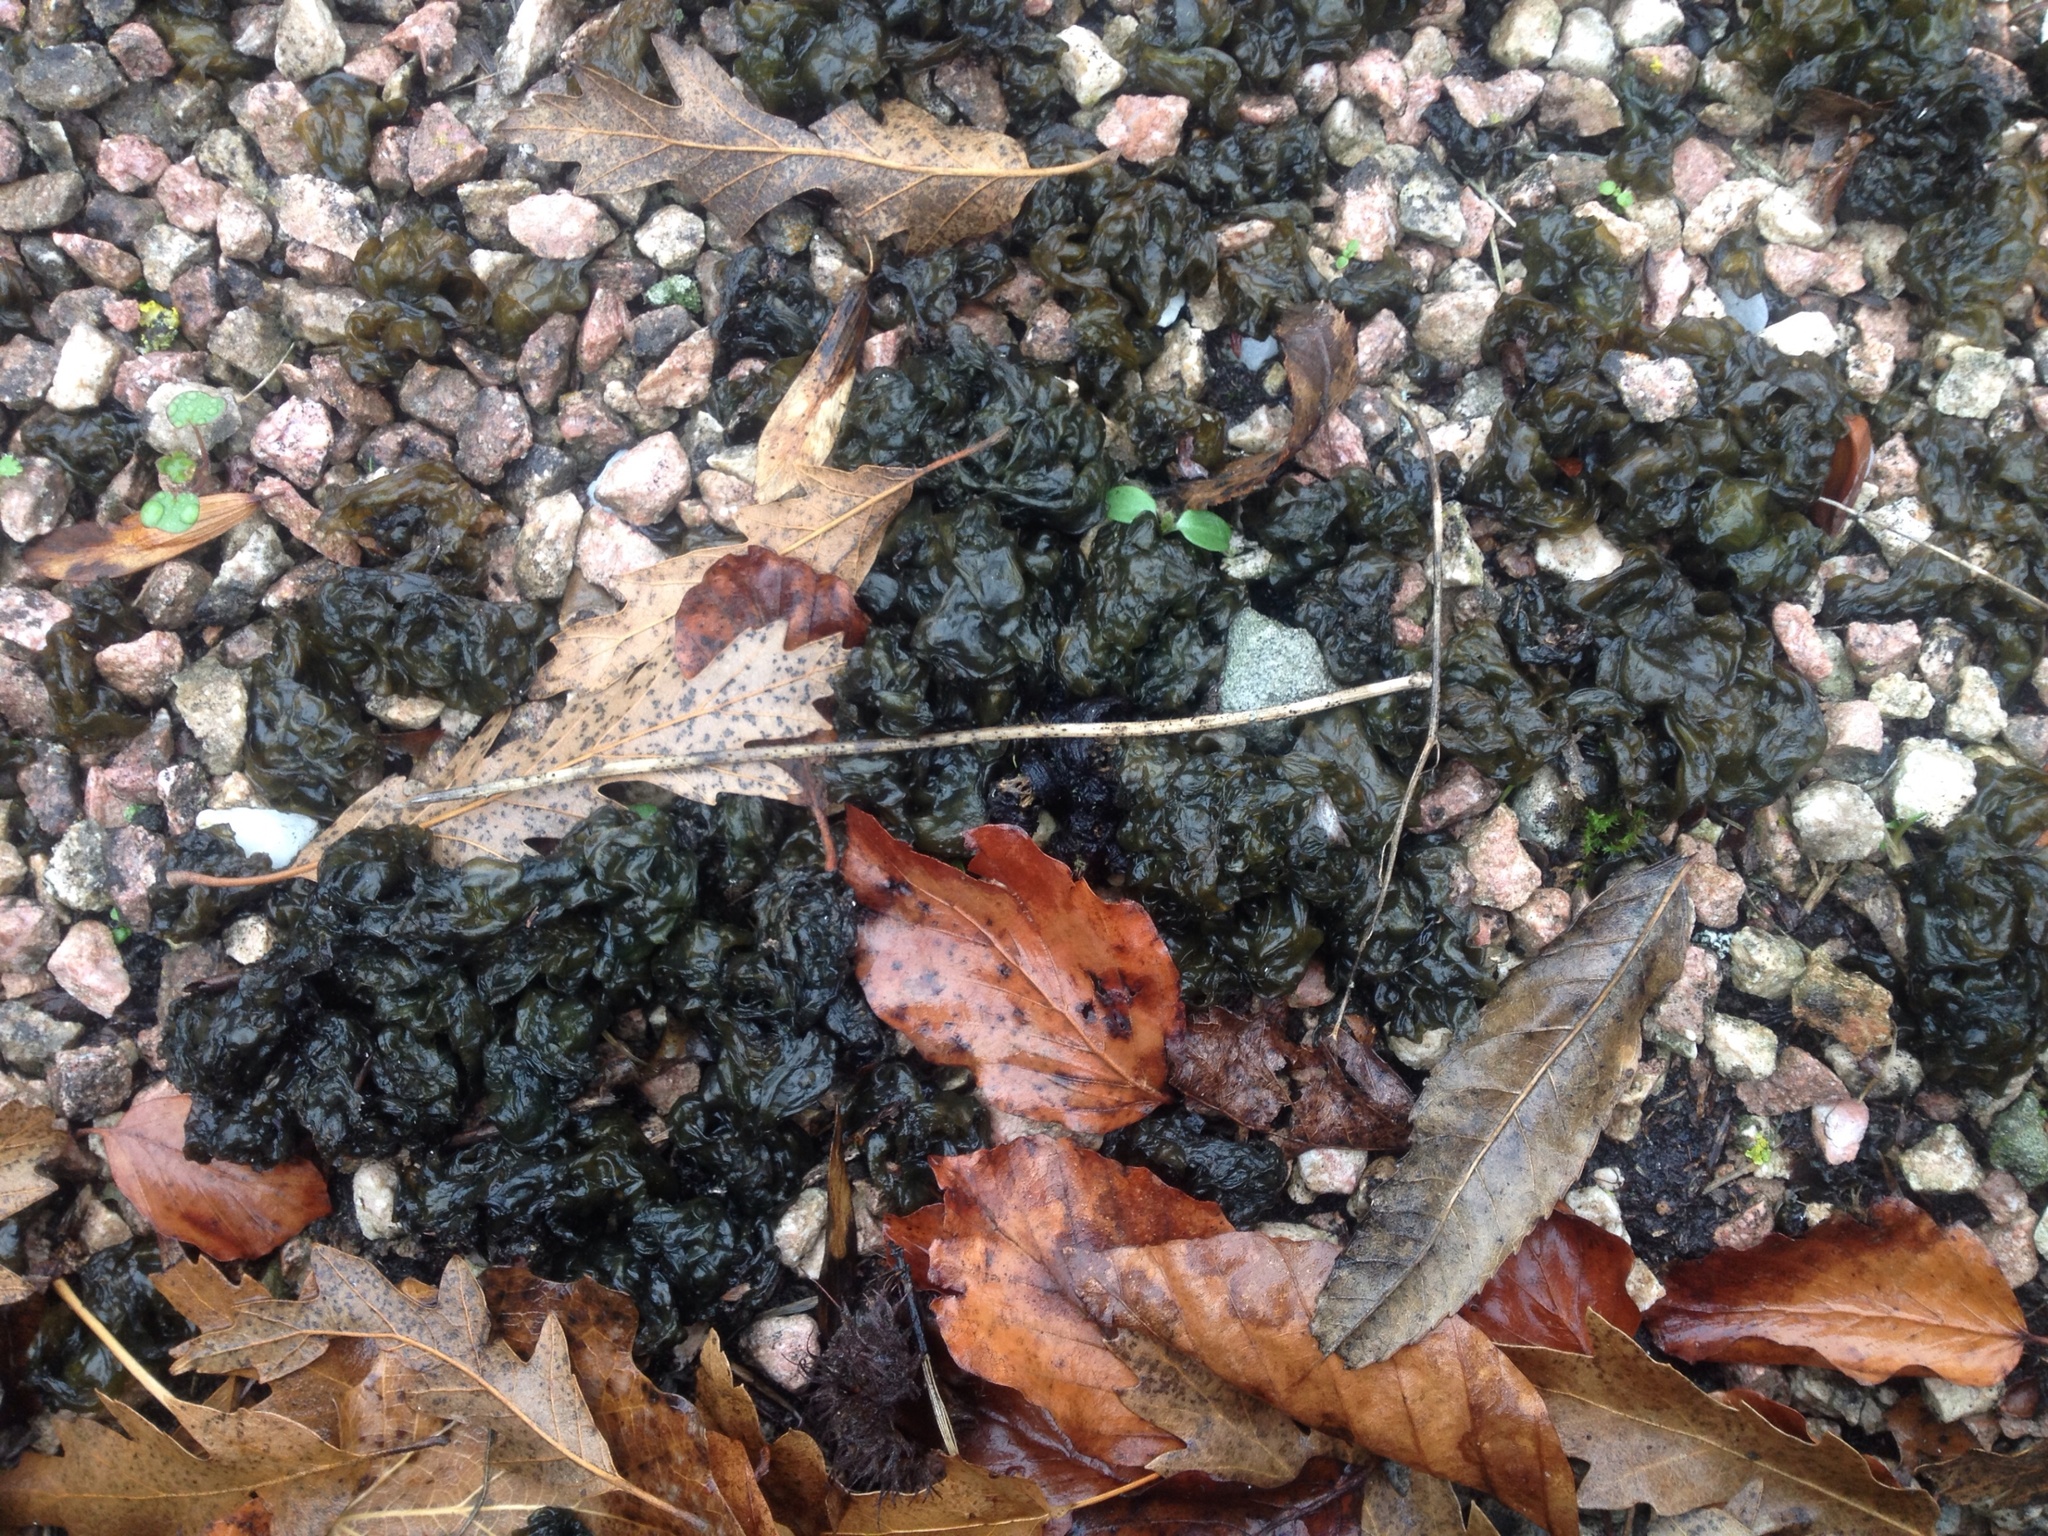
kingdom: Bacteria
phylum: Cyanobacteria
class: Cyanobacteriia
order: Cyanobacteriales
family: Nostocaceae
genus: Nostoc
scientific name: Nostoc commune
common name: Star jelly
